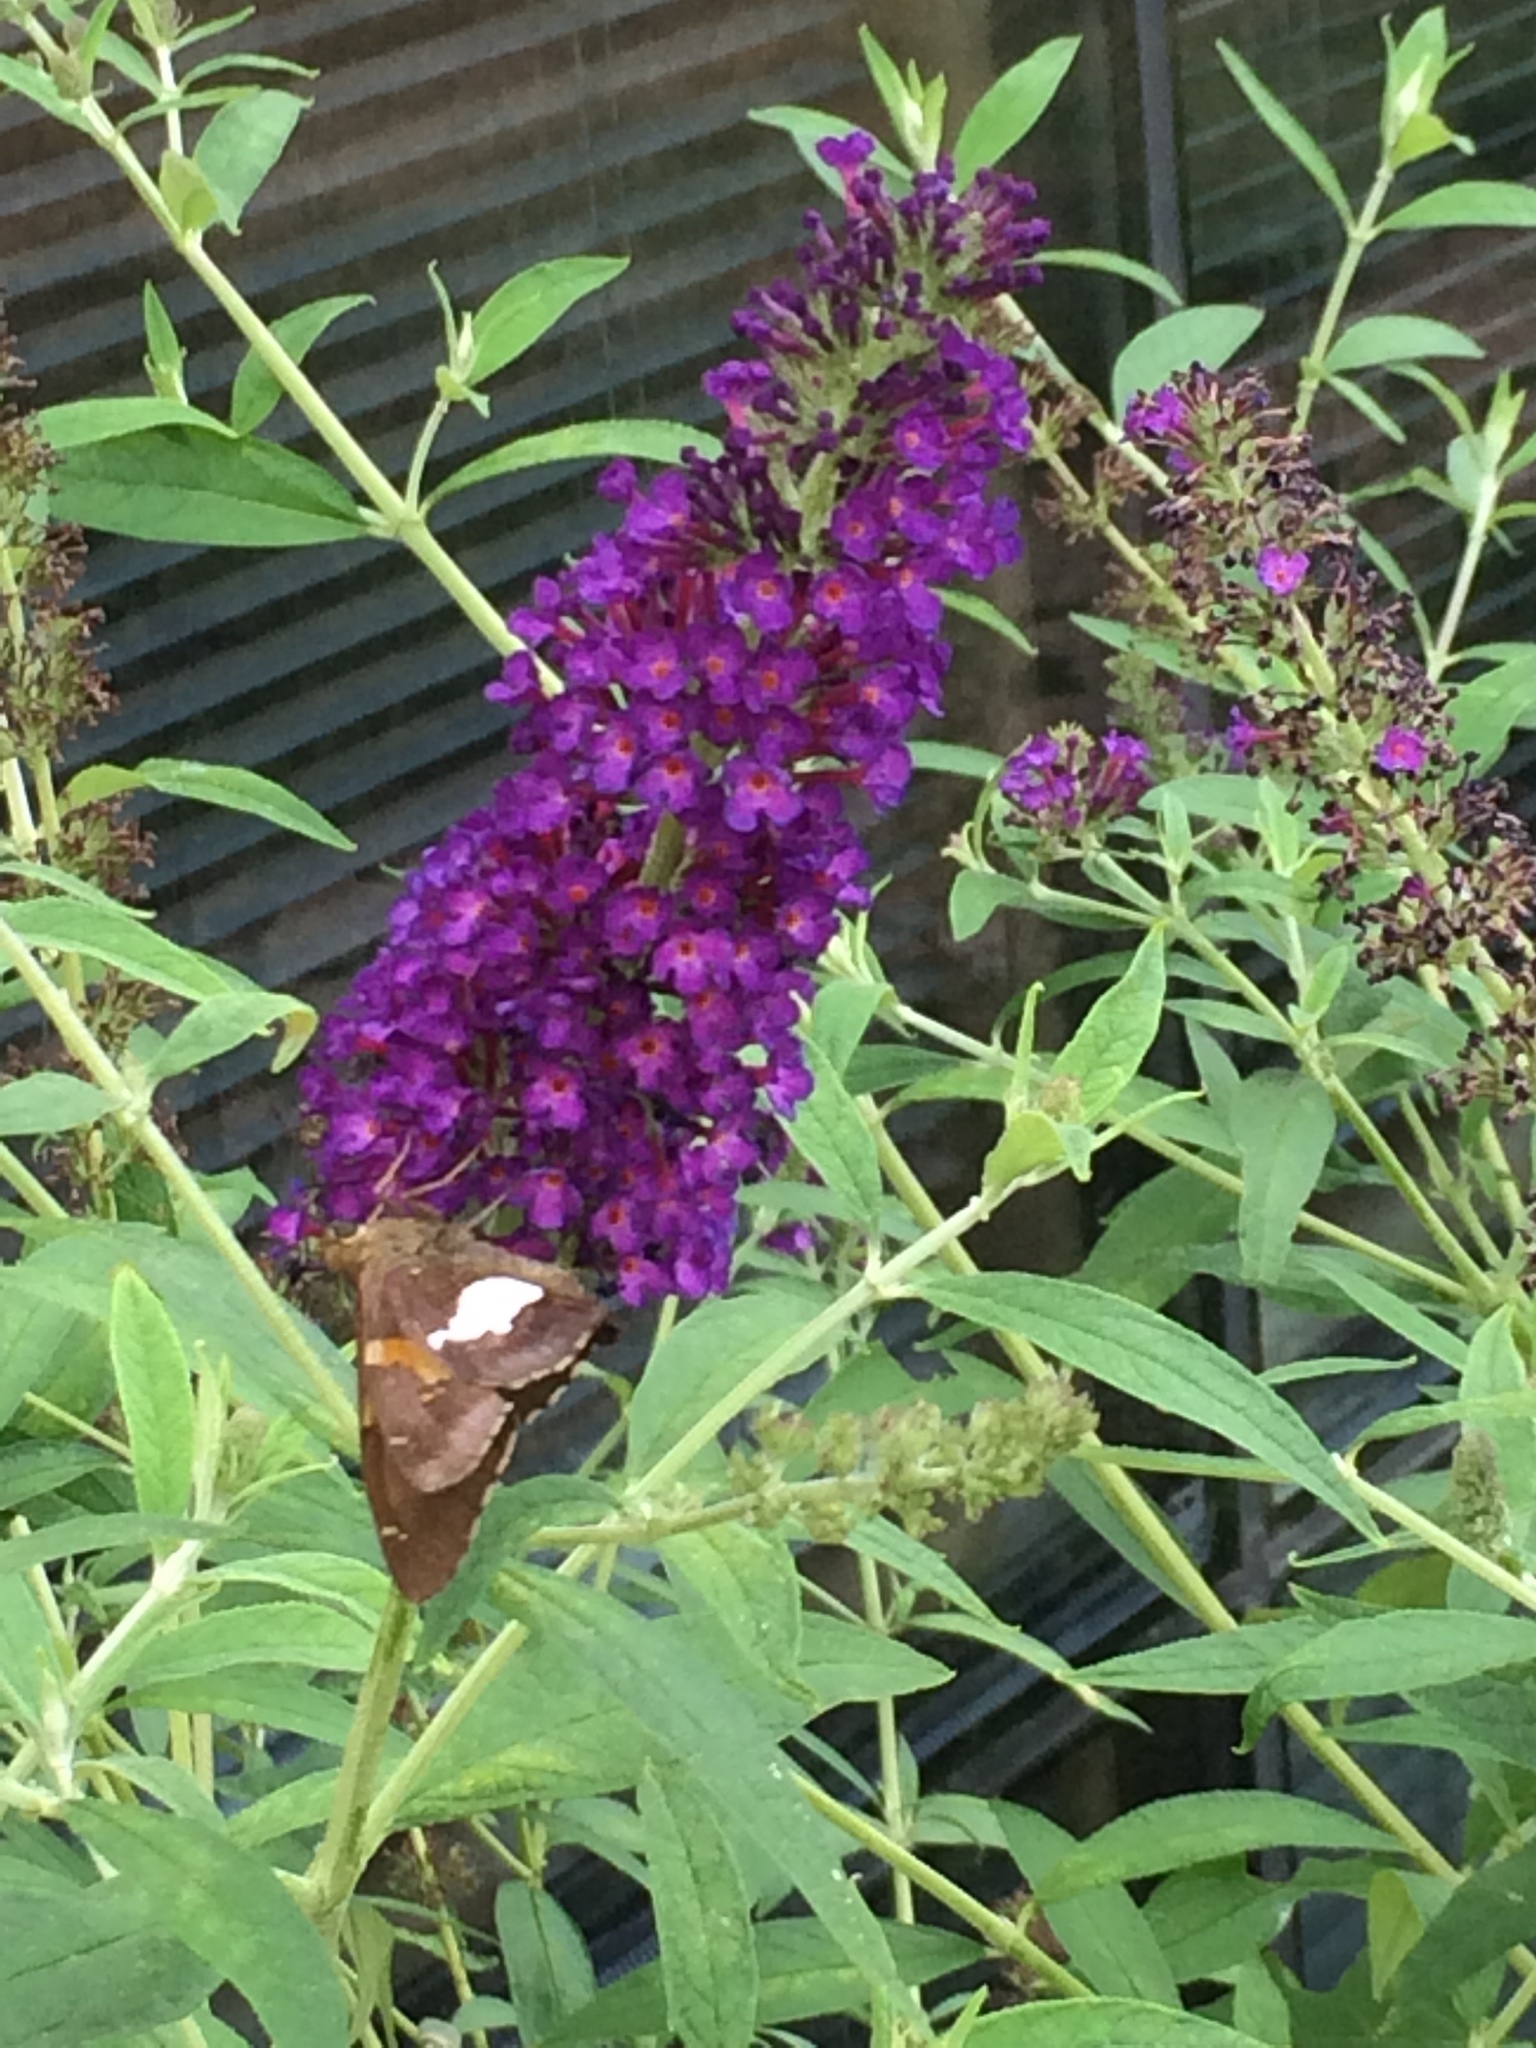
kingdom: Animalia
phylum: Arthropoda
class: Insecta
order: Lepidoptera
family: Hesperiidae
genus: Epargyreus
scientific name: Epargyreus clarus
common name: Silver-spotted skipper
